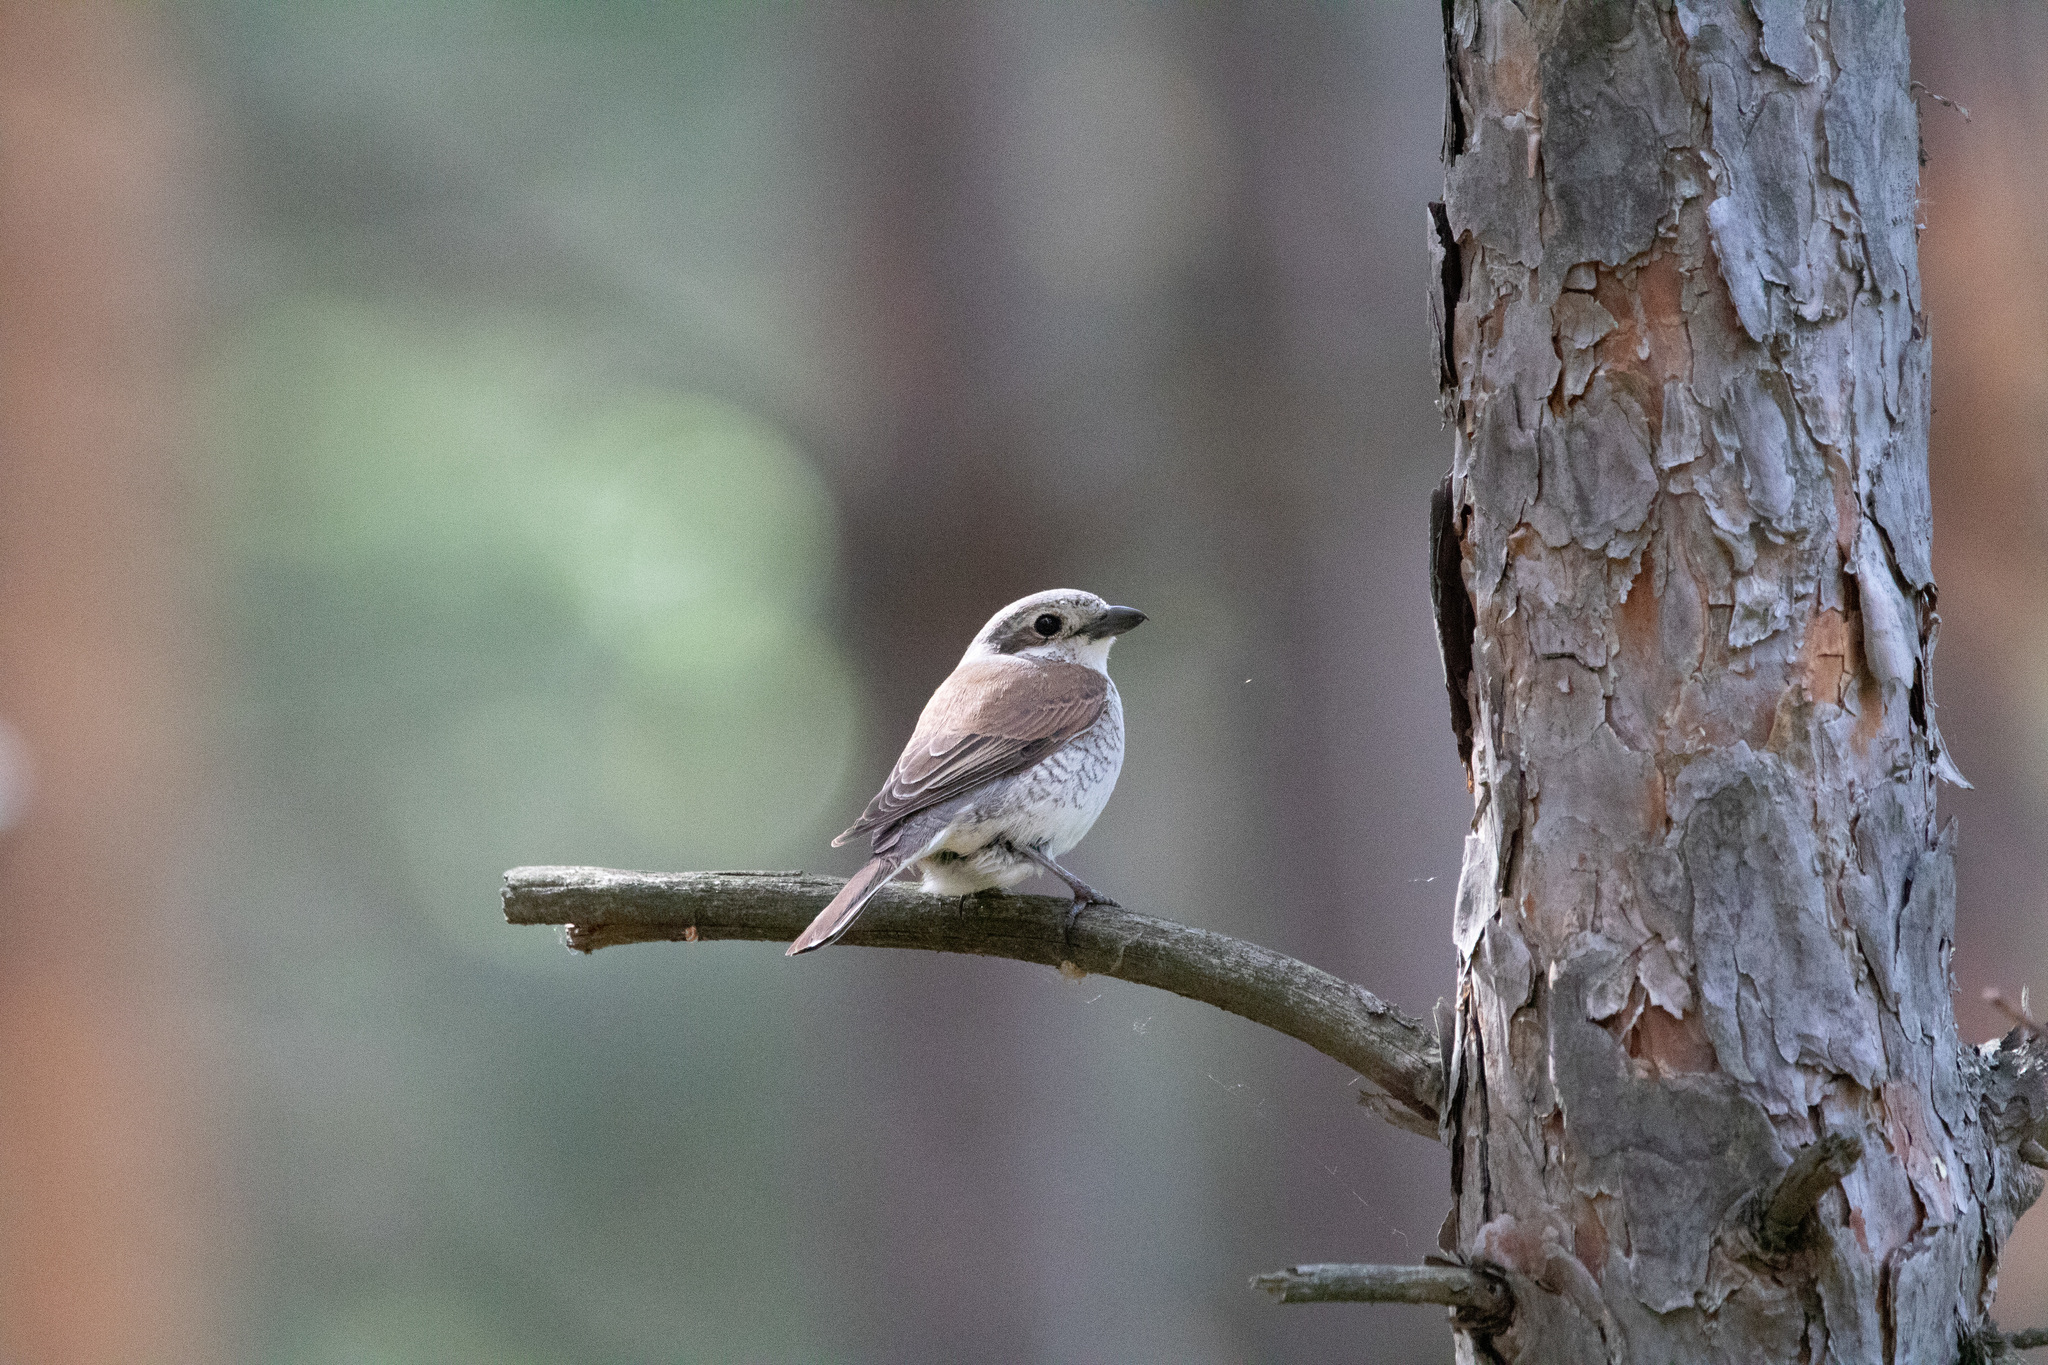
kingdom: Animalia
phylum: Chordata
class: Aves
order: Passeriformes
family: Laniidae
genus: Lanius
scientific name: Lanius collurio
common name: Red-backed shrike
